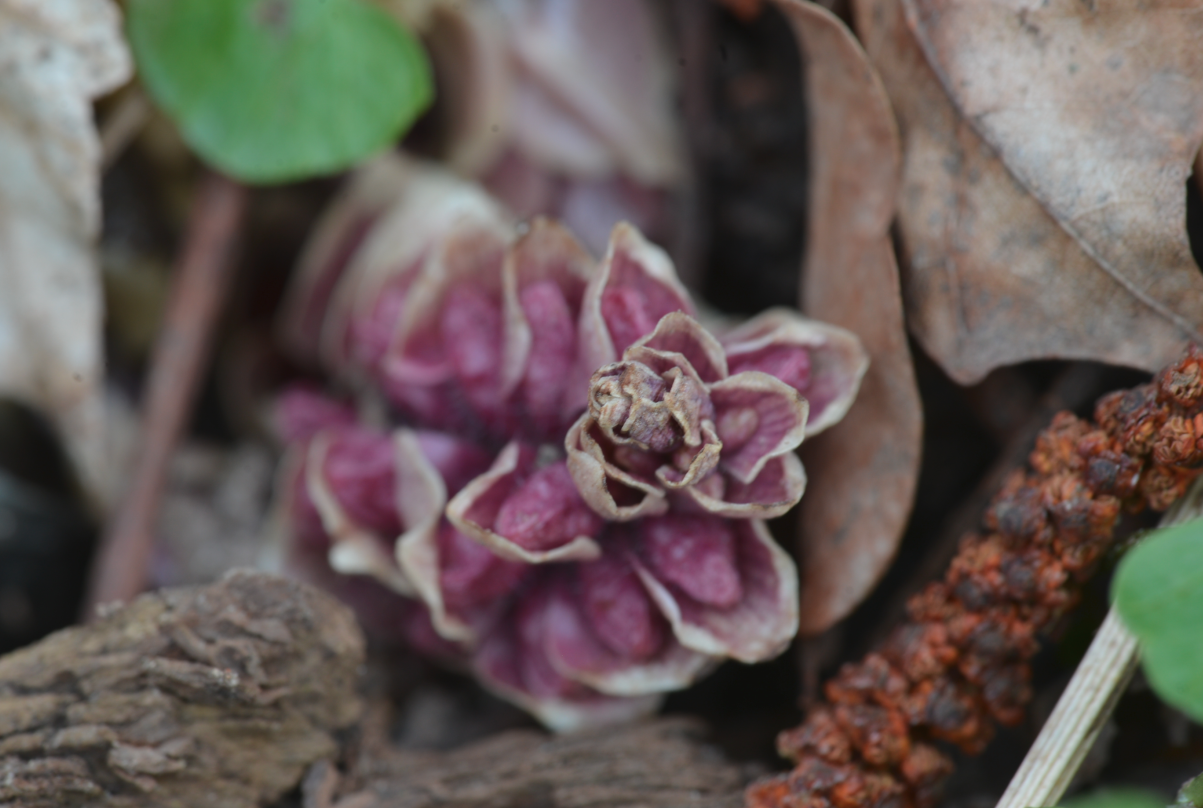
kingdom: Plantae
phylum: Tracheophyta
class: Magnoliopsida
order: Lamiales
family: Orobanchaceae
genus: Lathraea
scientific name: Lathraea squamaria
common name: Toothwort
